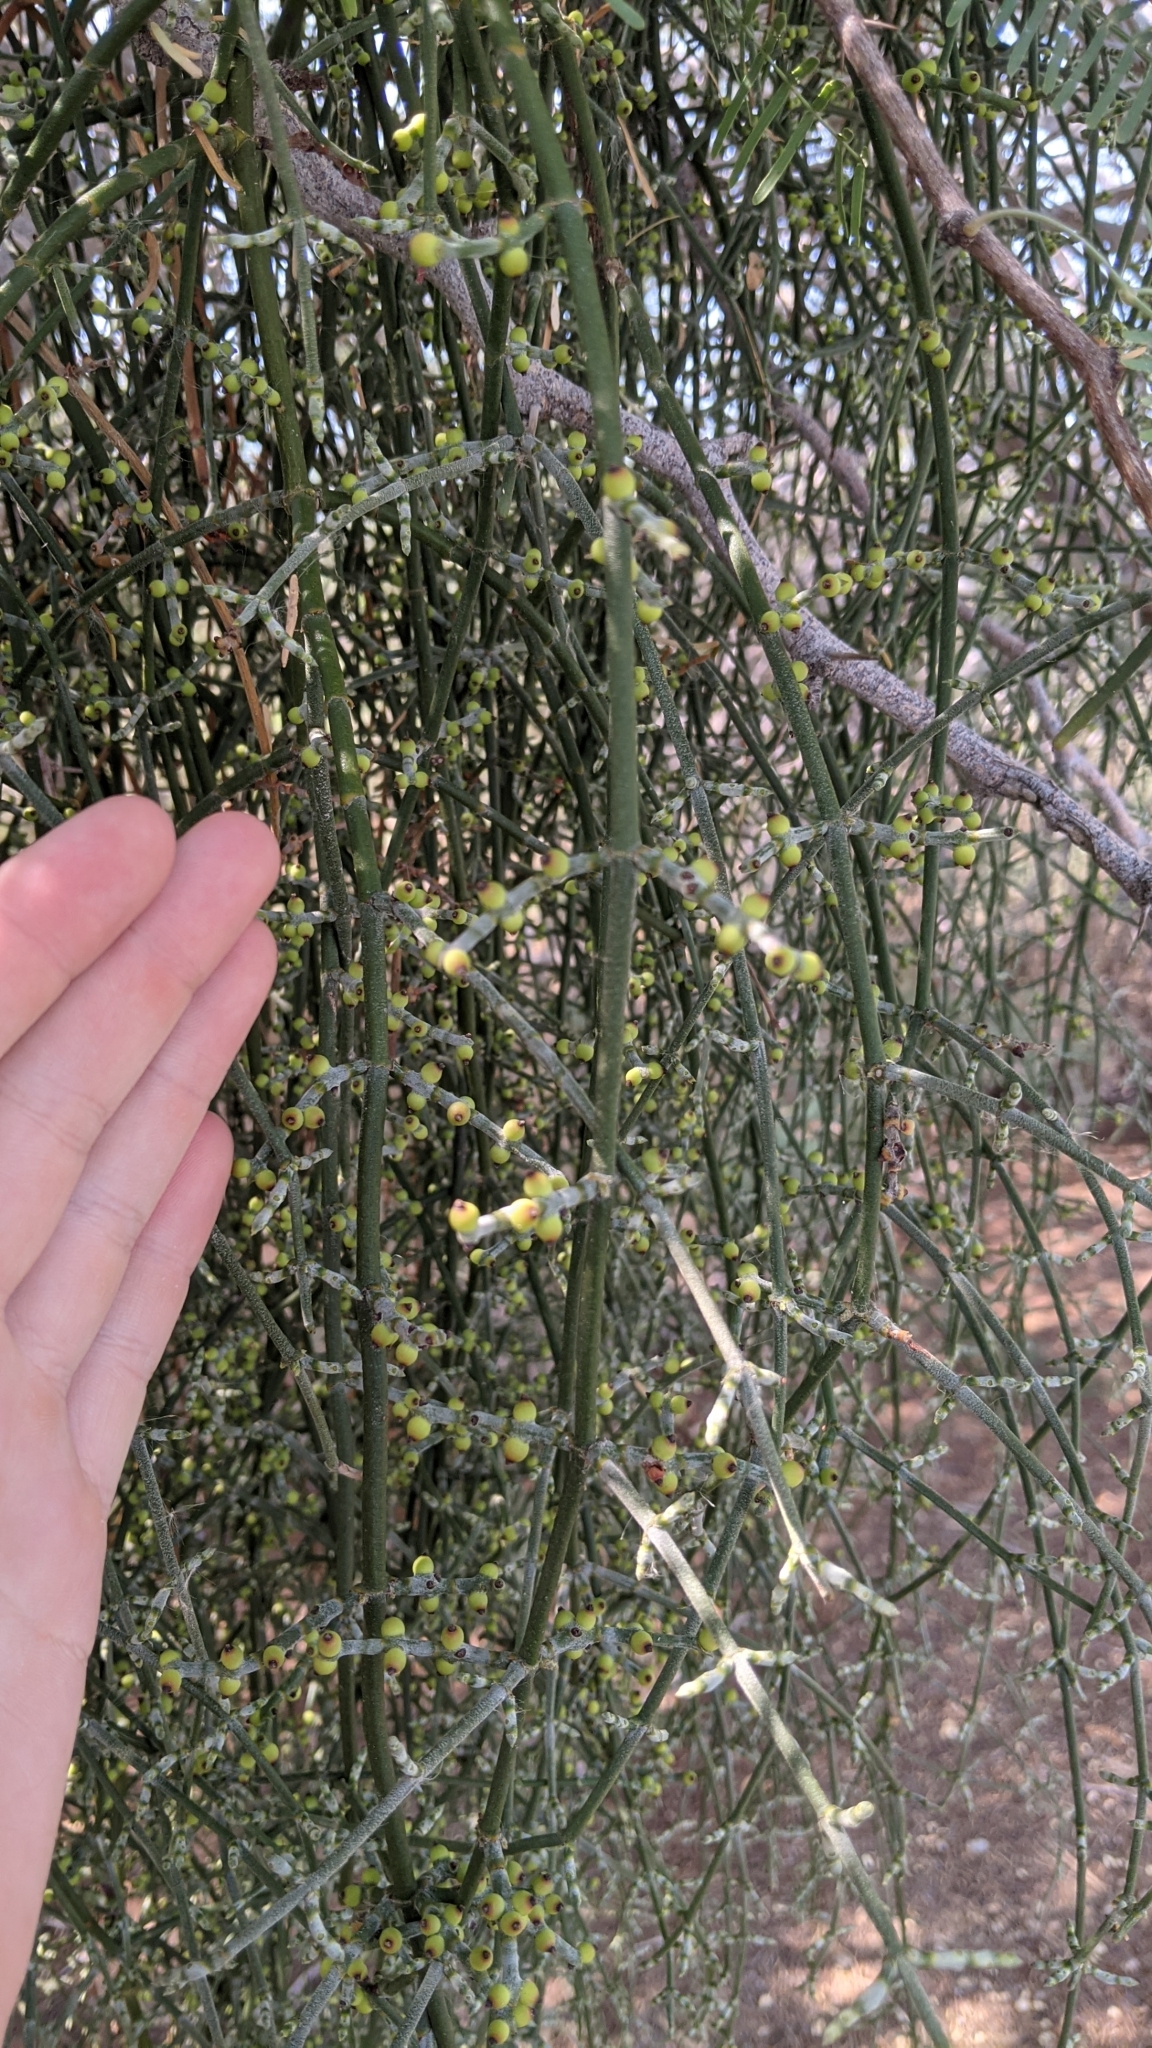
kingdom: Plantae
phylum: Tracheophyta
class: Magnoliopsida
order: Santalales
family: Viscaceae
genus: Phoradendron
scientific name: Phoradendron californicum
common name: Acacia mistletoe
